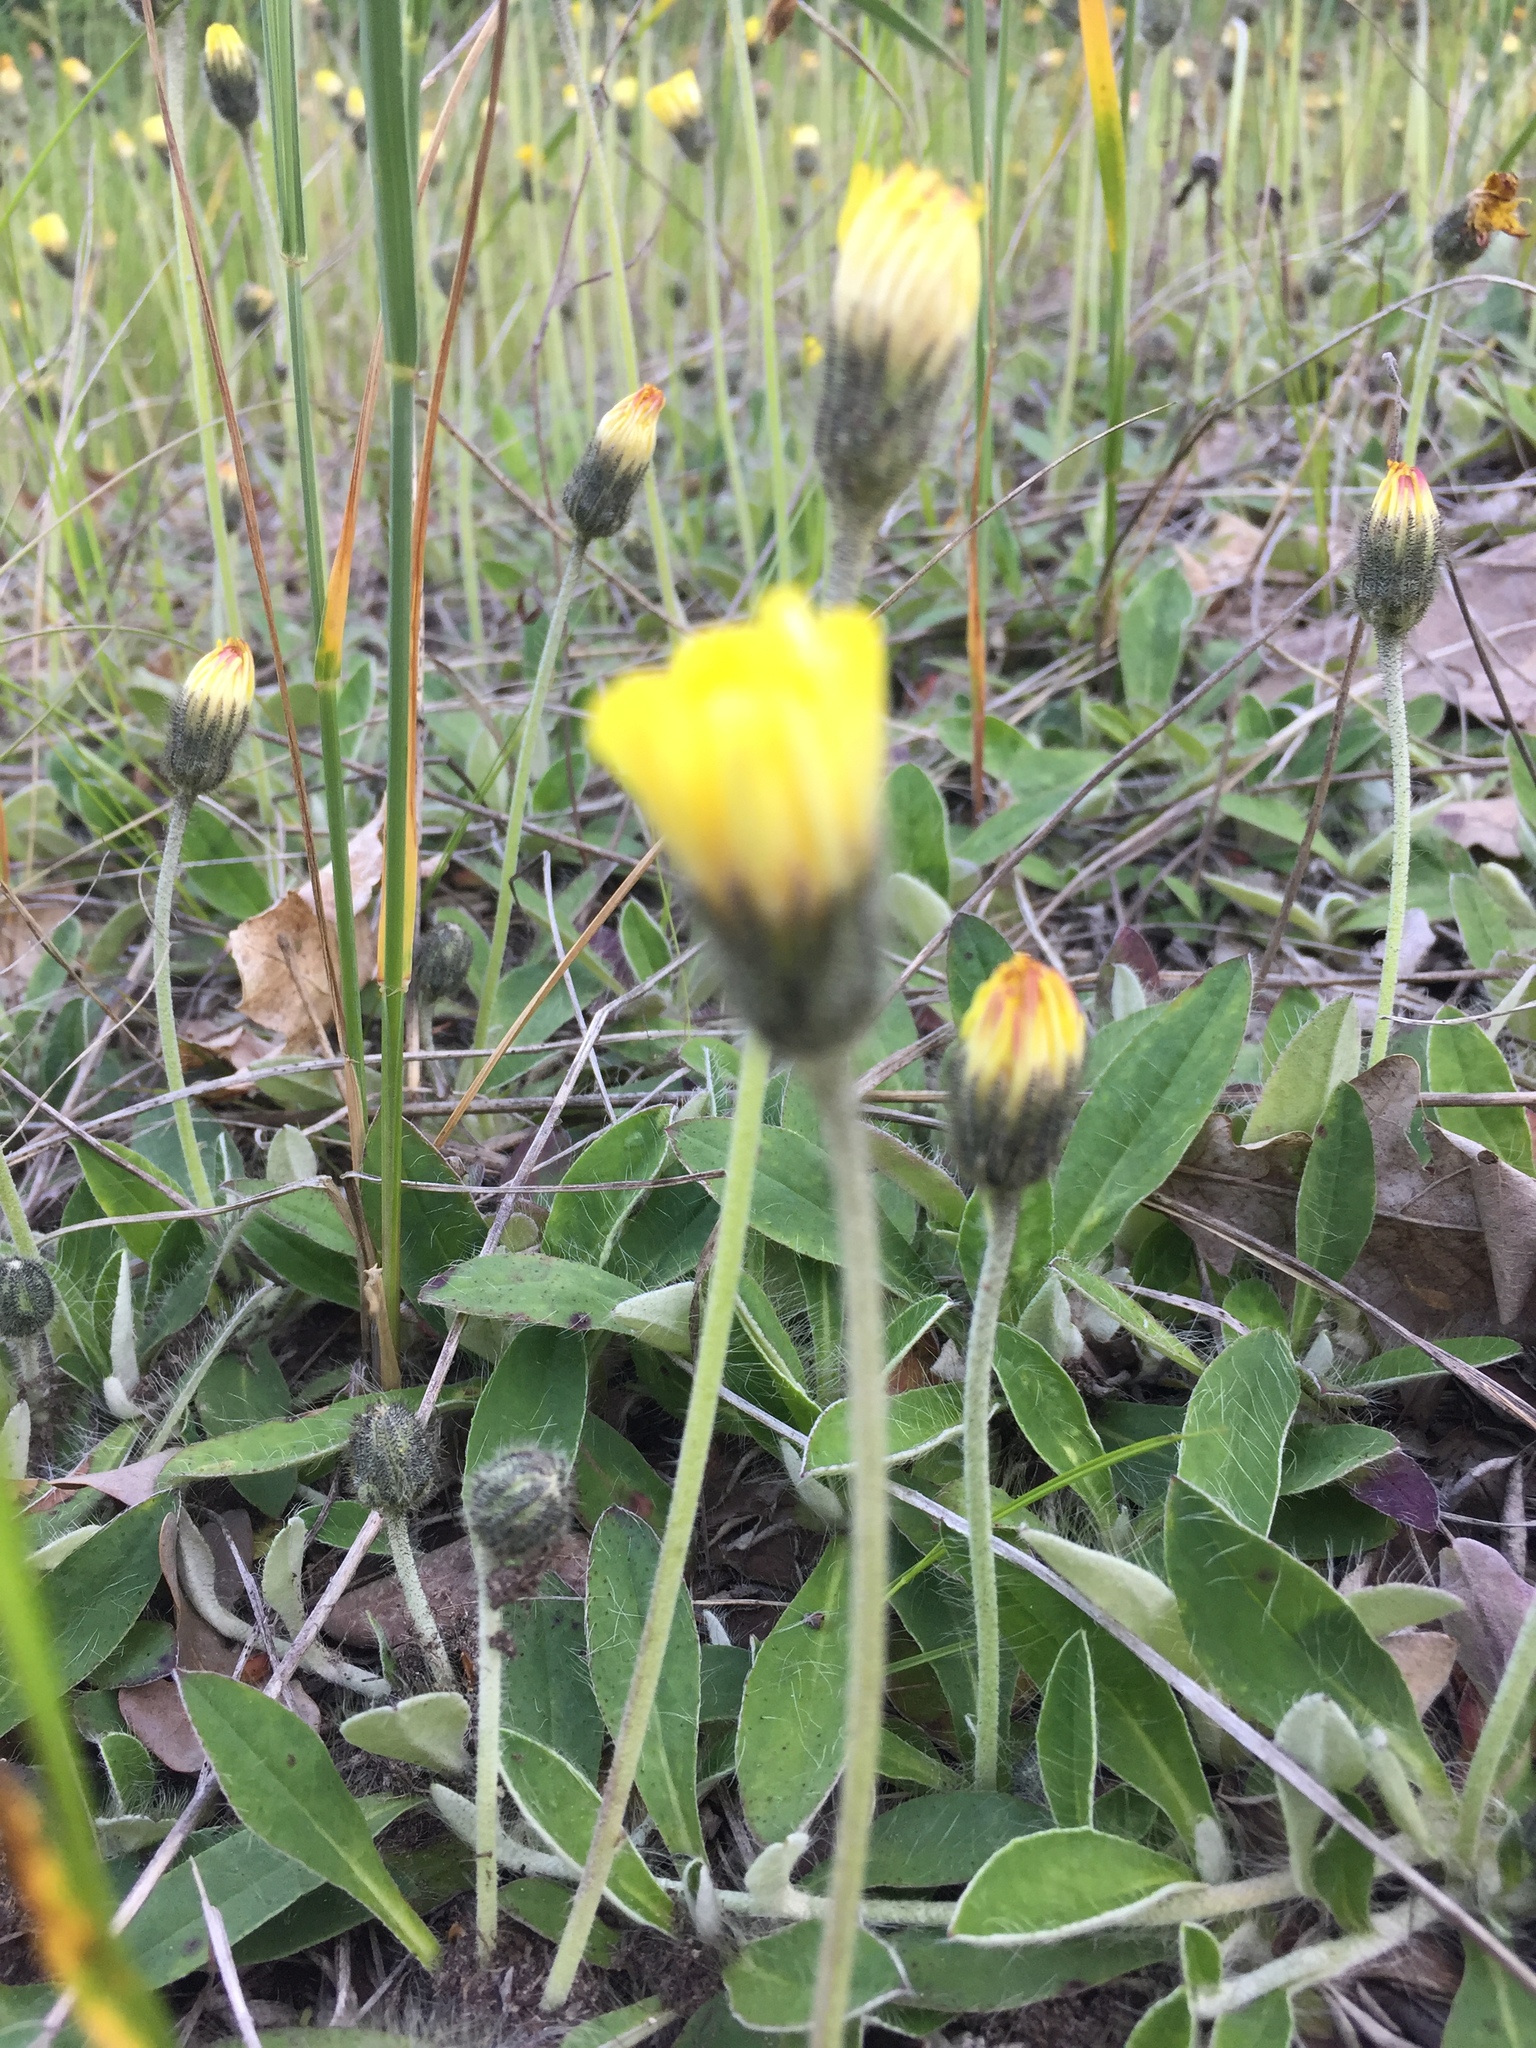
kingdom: Plantae
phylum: Tracheophyta
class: Magnoliopsida
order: Asterales
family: Asteraceae
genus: Pilosella
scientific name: Pilosella officinarum
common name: Mouse-ear hawkweed
